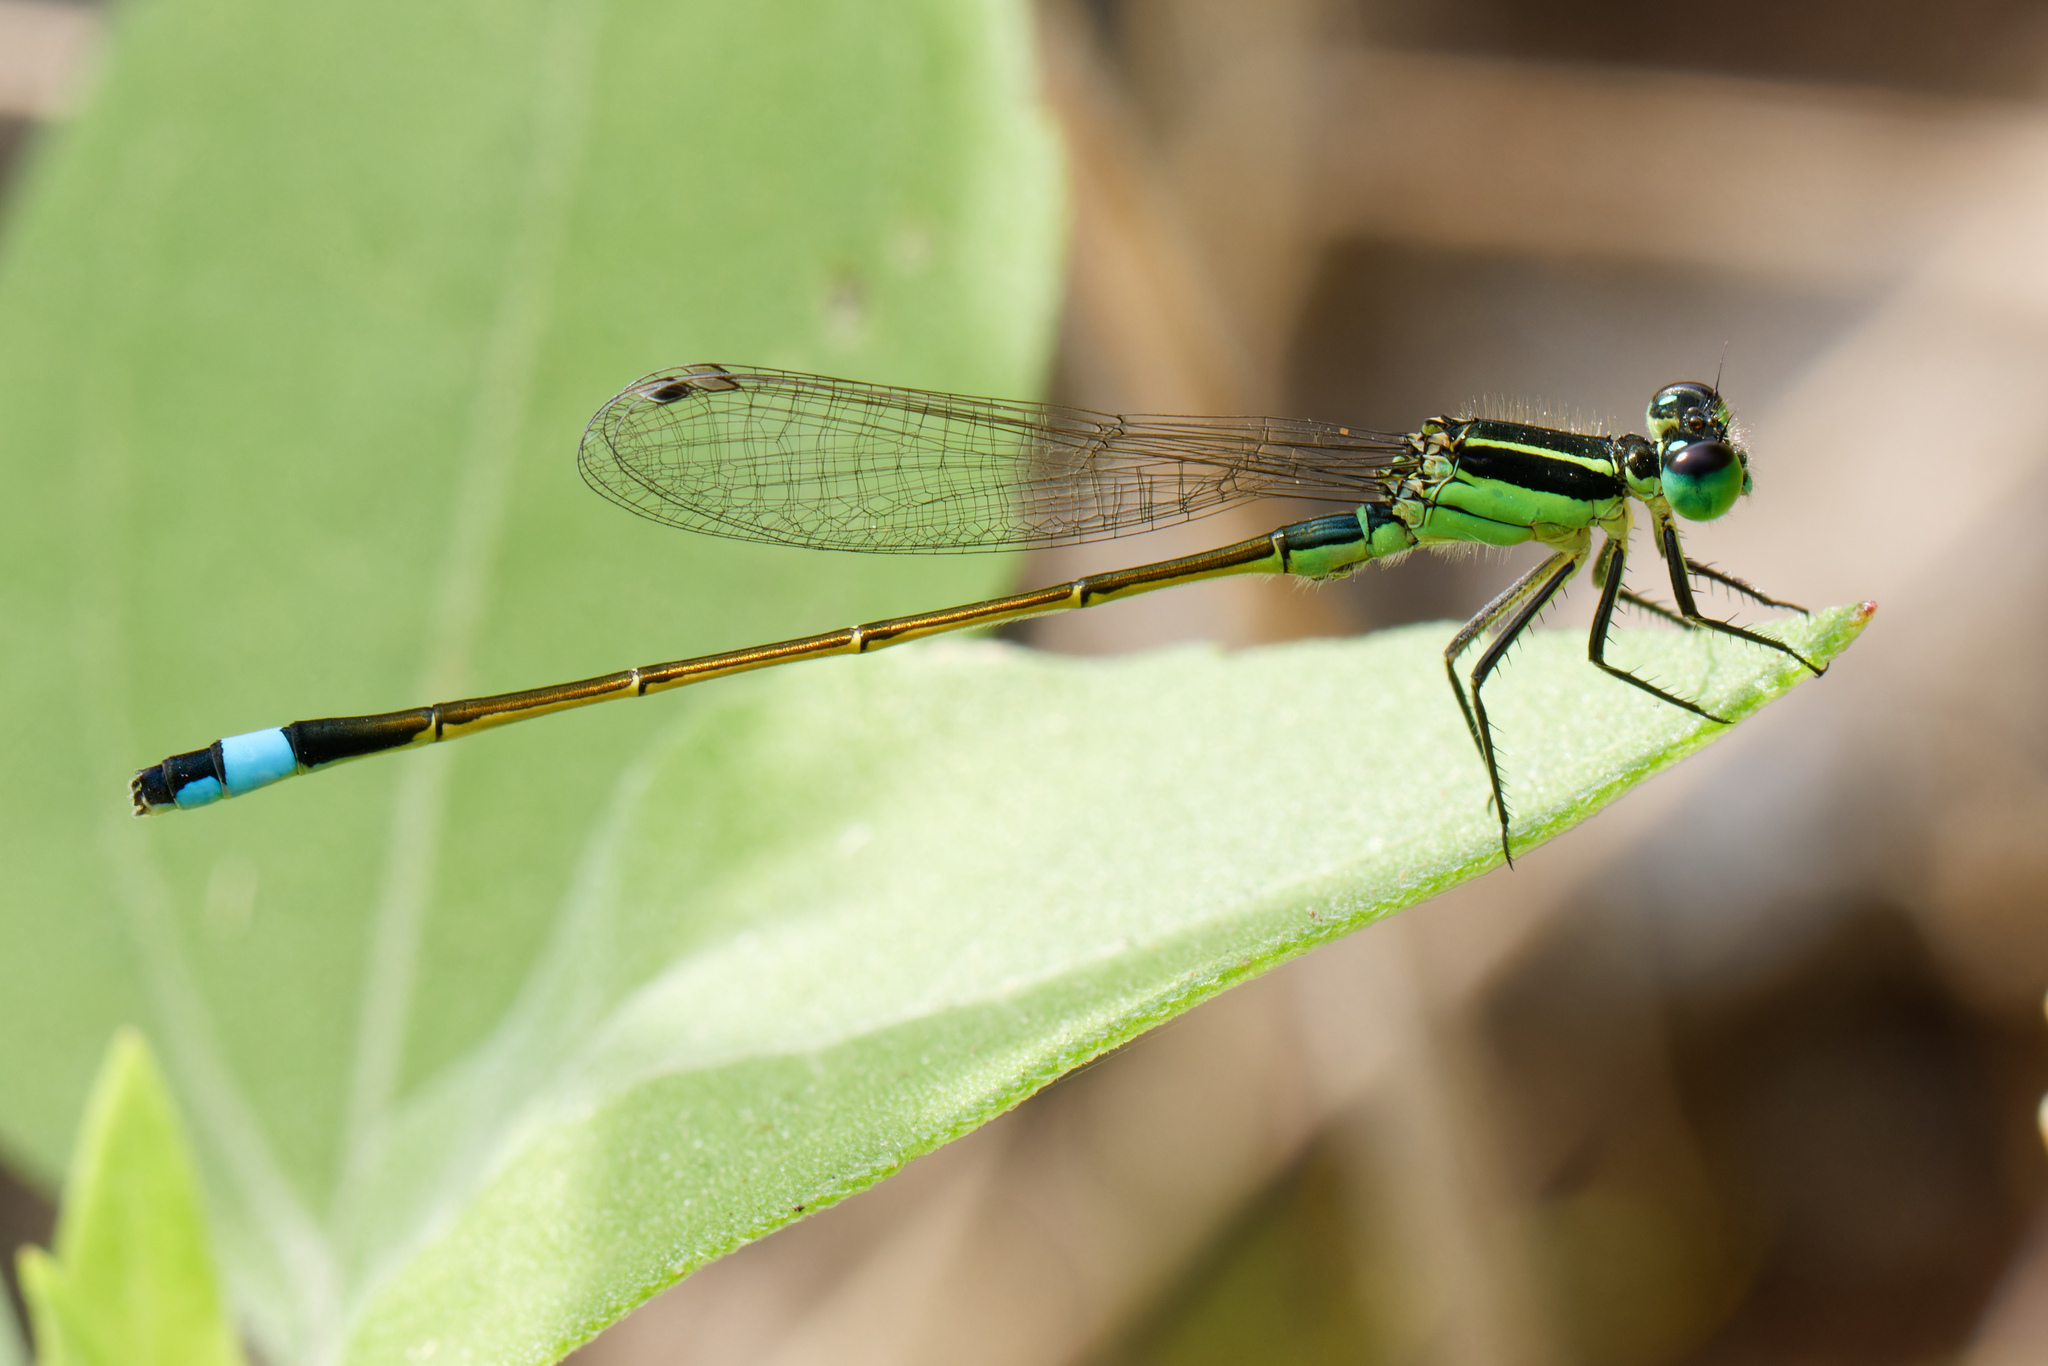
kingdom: Animalia
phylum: Arthropoda
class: Insecta
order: Odonata
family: Coenagrionidae
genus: Ischnura
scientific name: Ischnura ramburii
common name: Rambur's forktail
